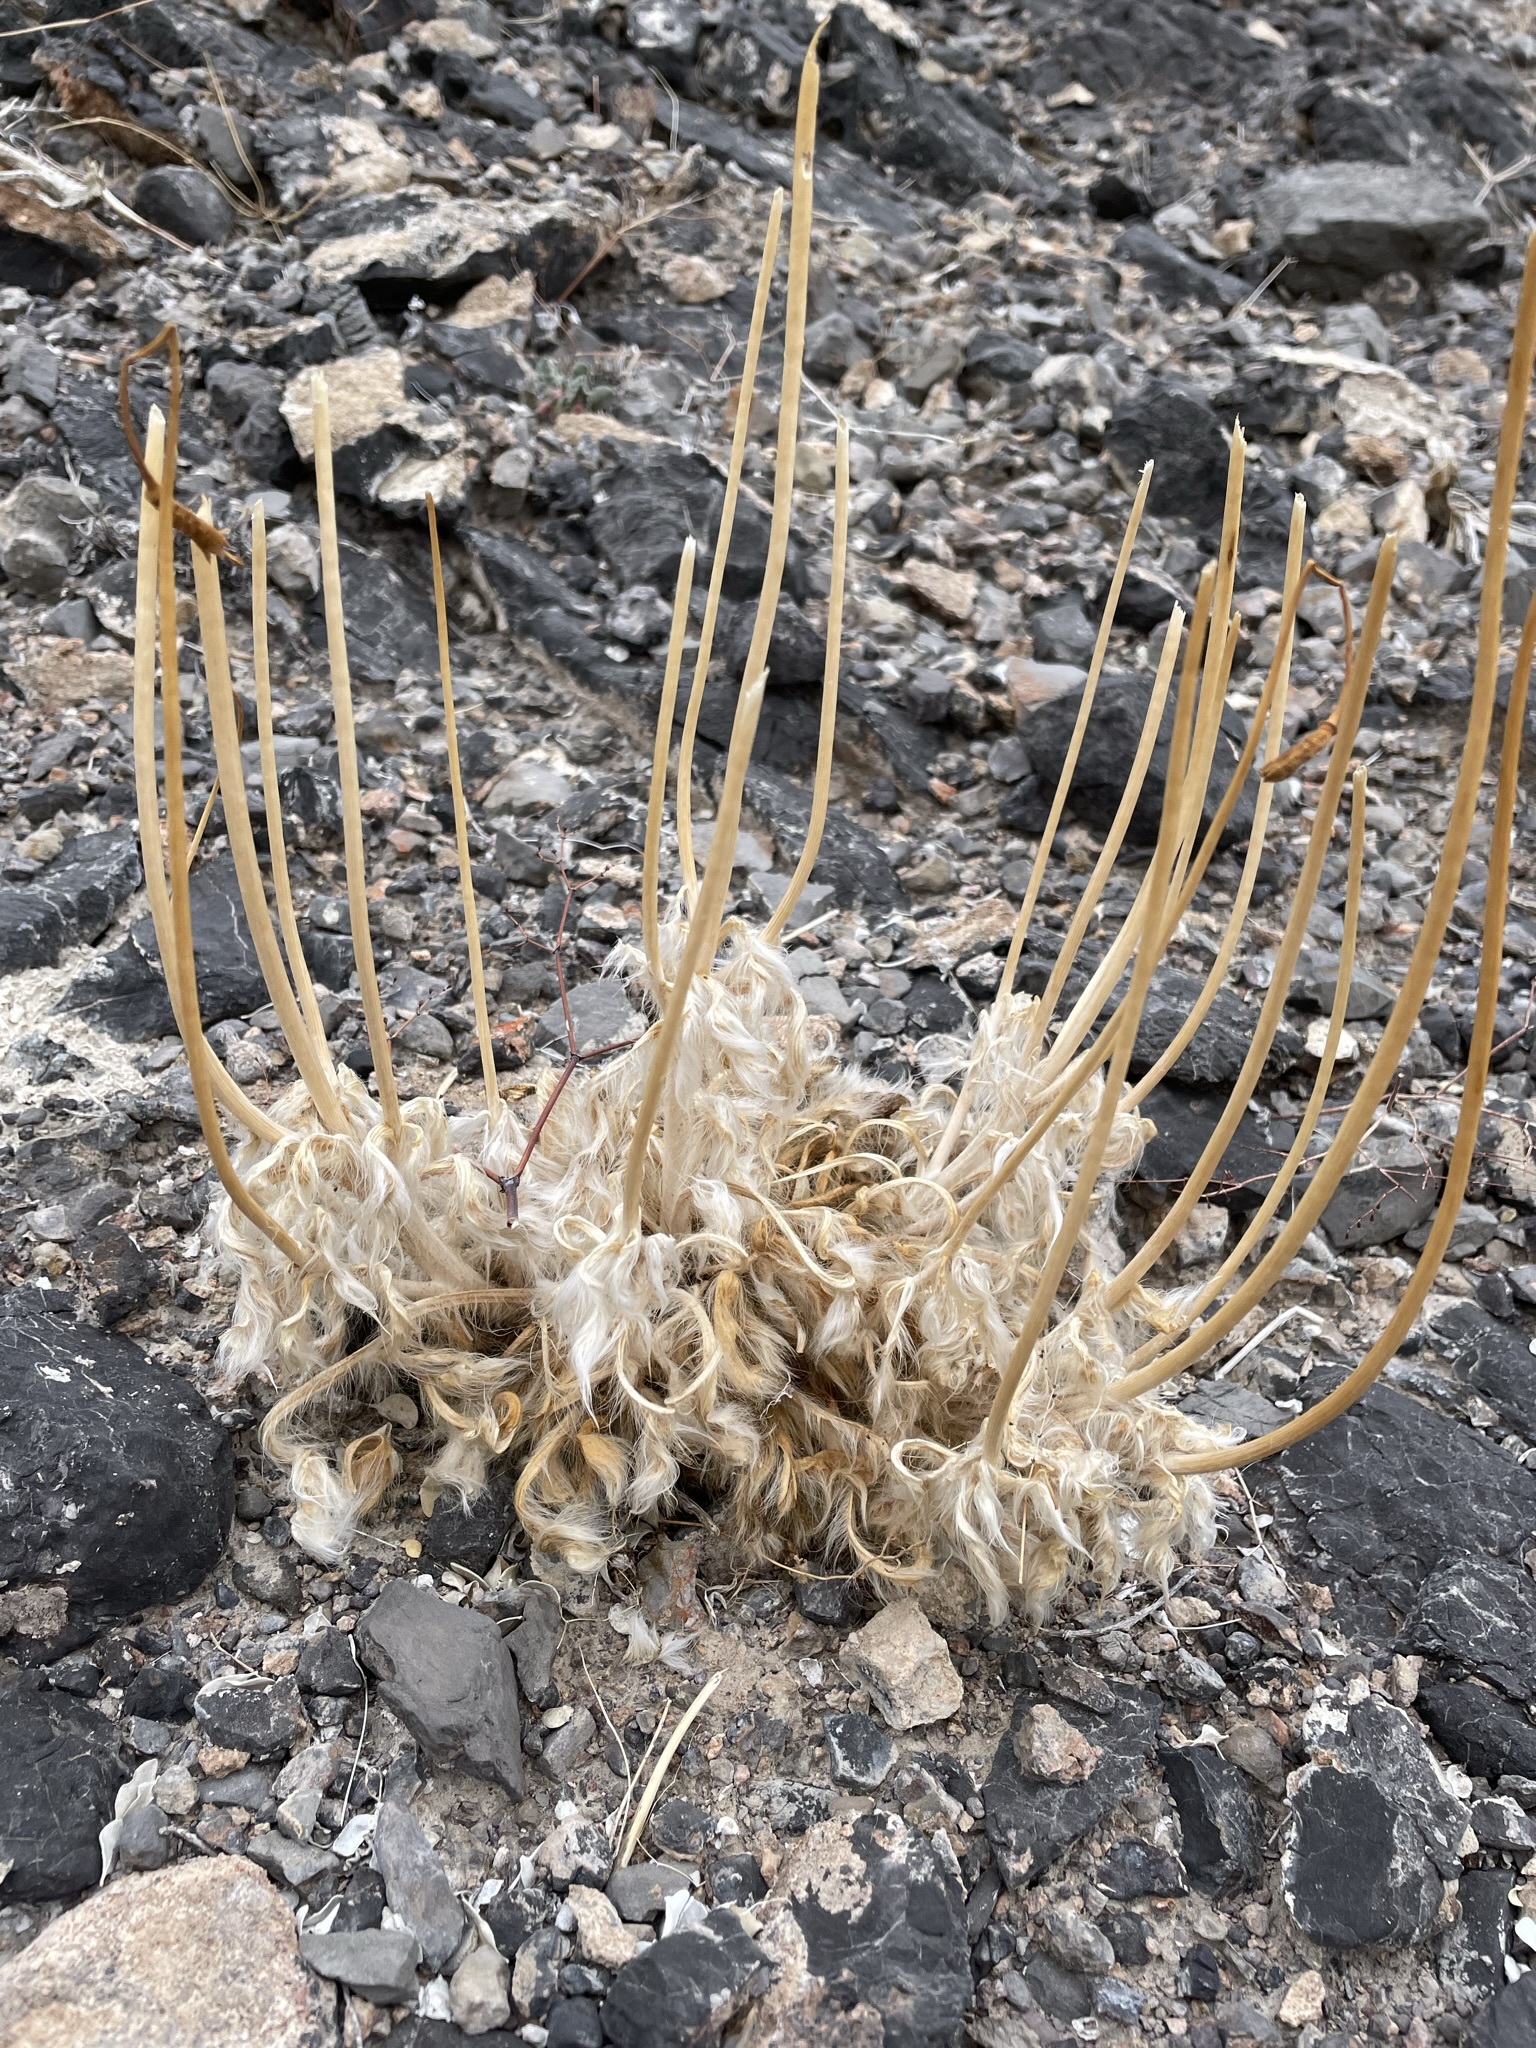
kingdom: Plantae
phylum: Tracheophyta
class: Magnoliopsida
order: Ranunculales
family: Papaveraceae
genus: Arctomecon
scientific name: Arctomecon merriamii
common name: White bear-poppy
